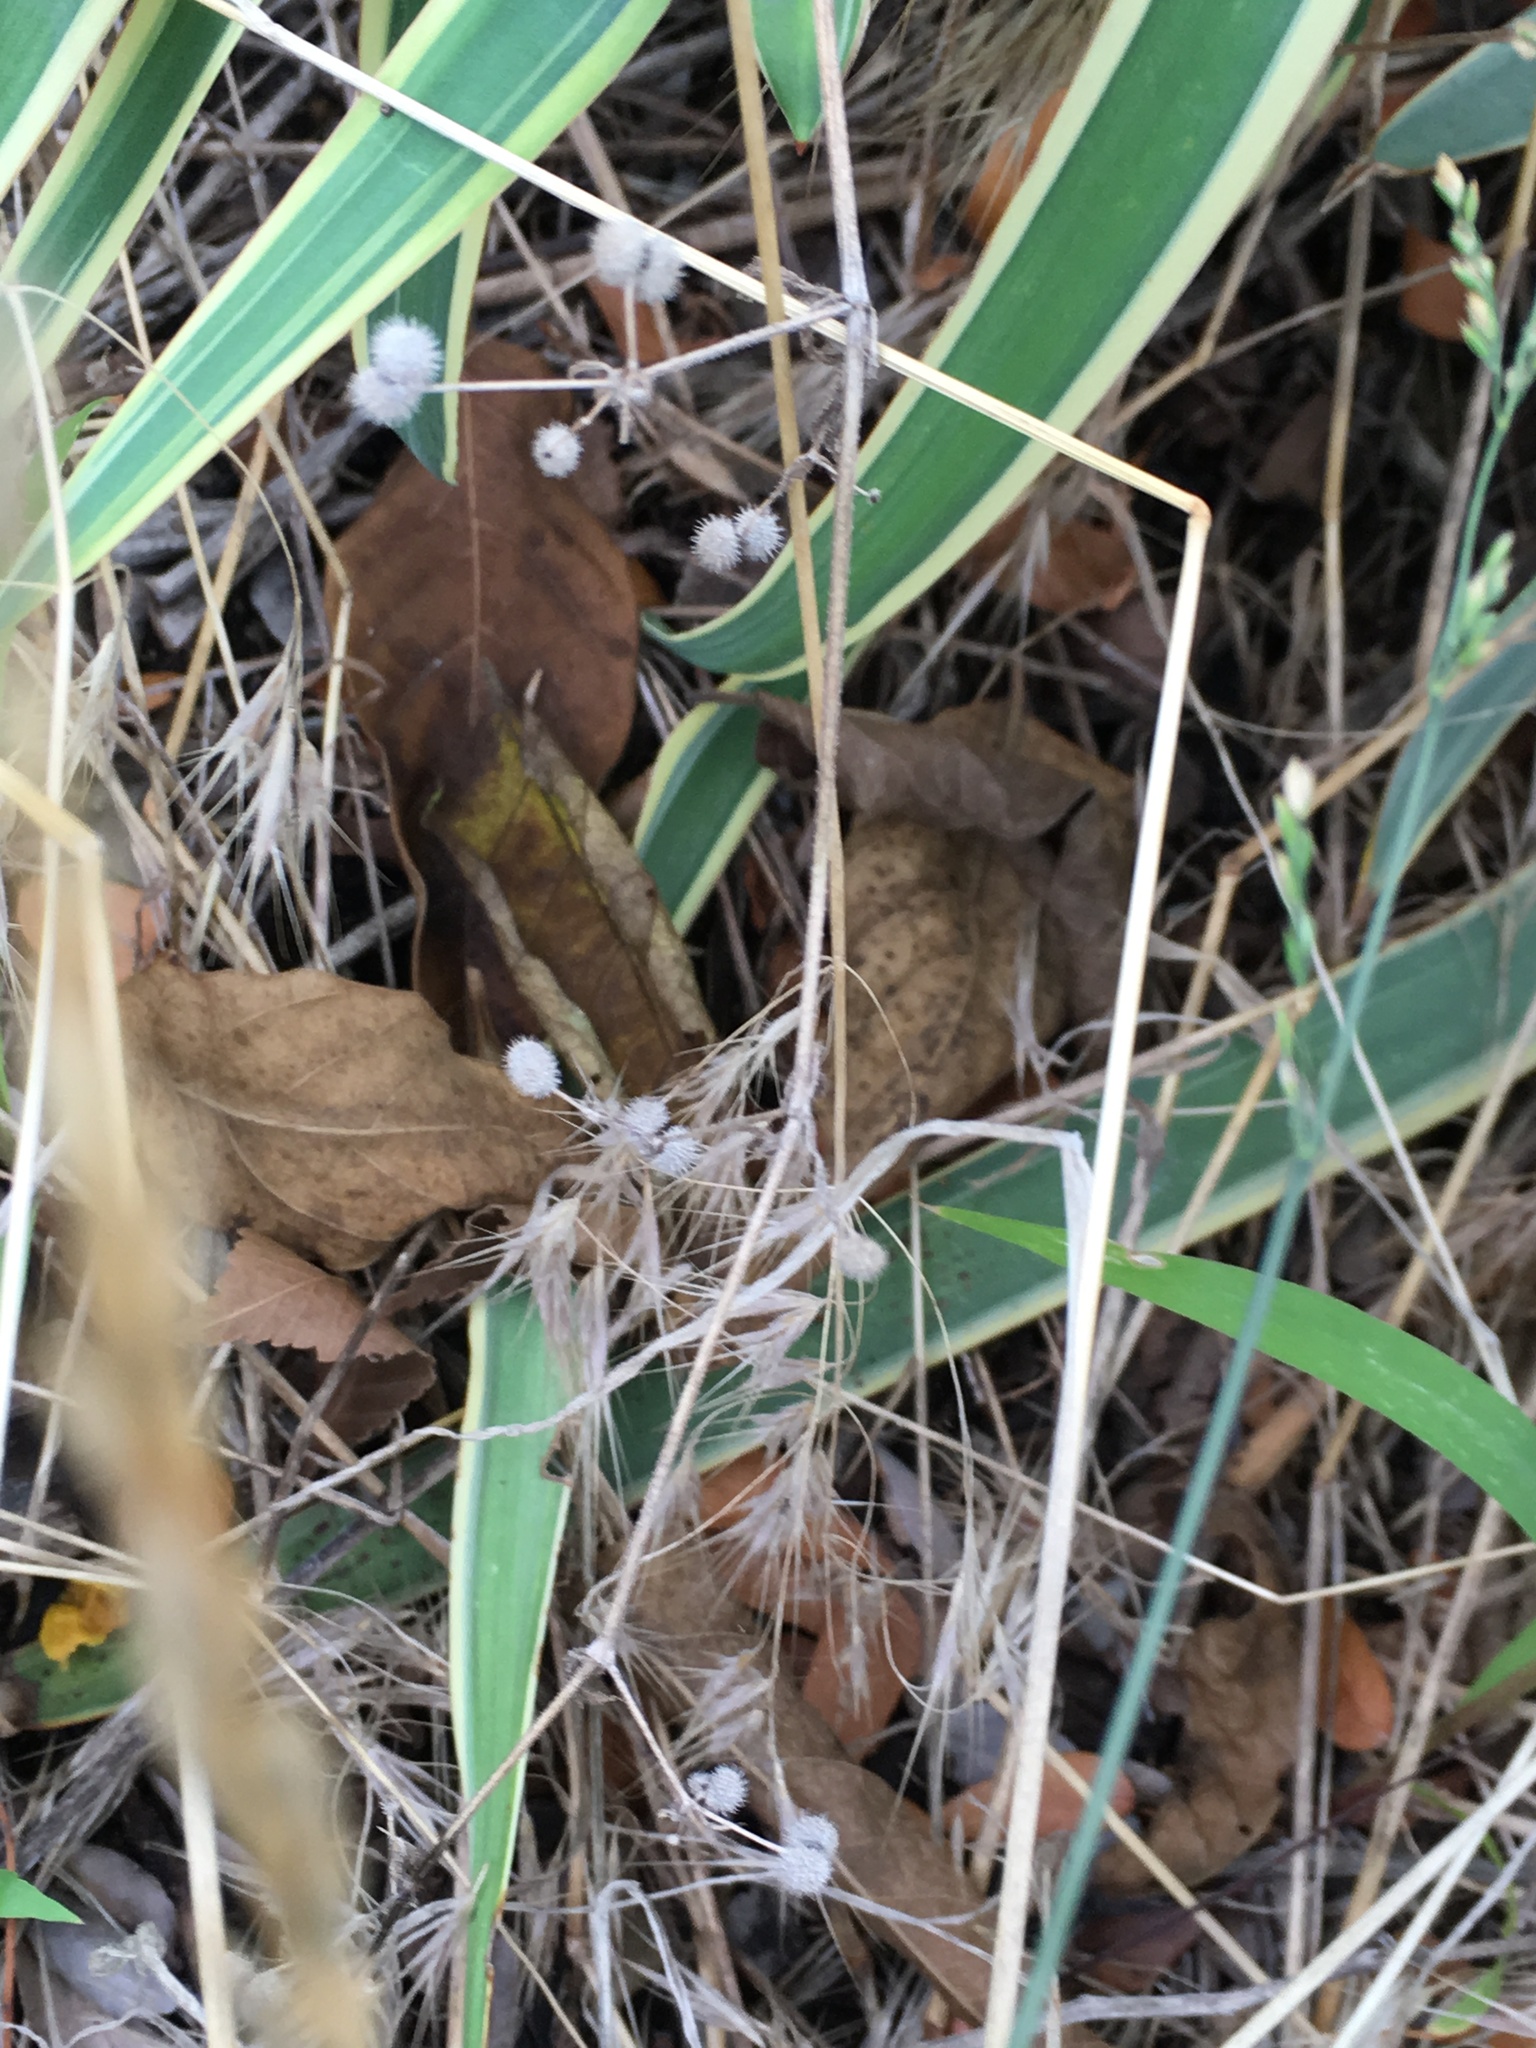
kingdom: Plantae
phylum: Tracheophyta
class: Magnoliopsida
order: Gentianales
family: Rubiaceae
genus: Galium
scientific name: Galium aparine
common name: Cleavers
